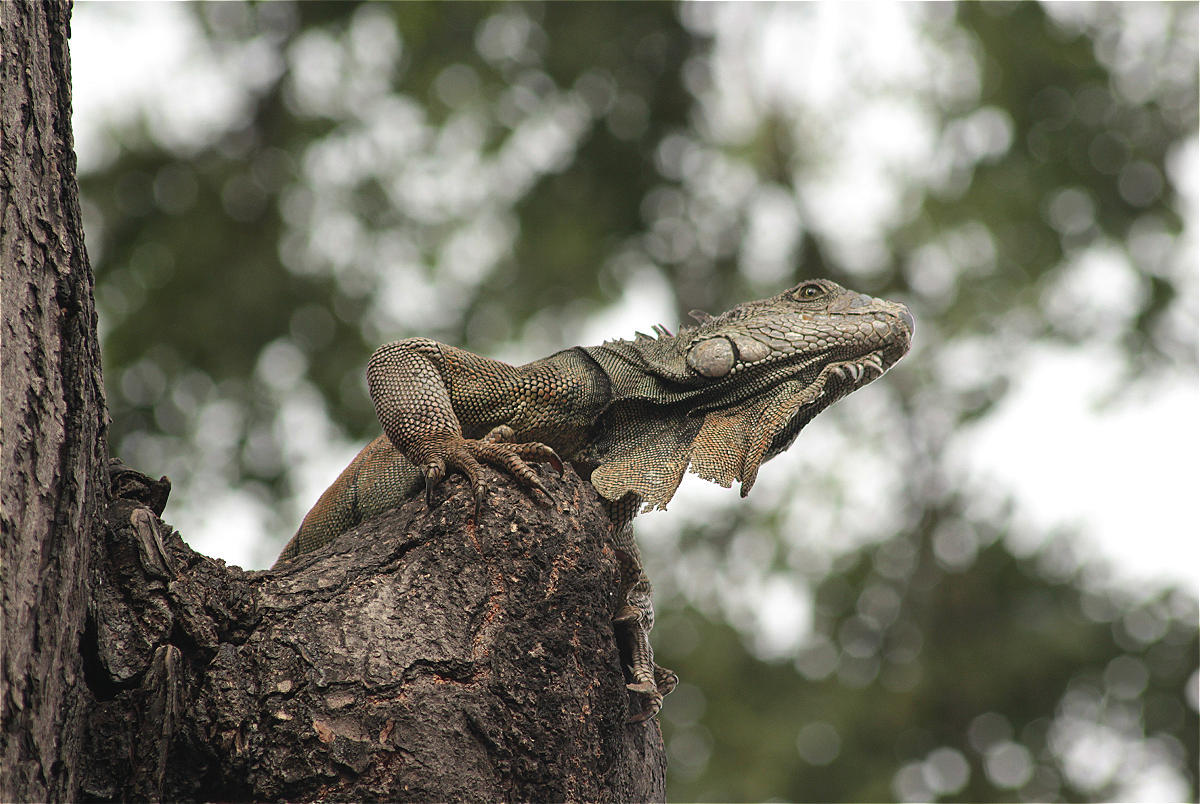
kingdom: Animalia
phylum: Chordata
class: Squamata
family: Iguanidae
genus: Iguana
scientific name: Iguana iguana
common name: Green iguana
